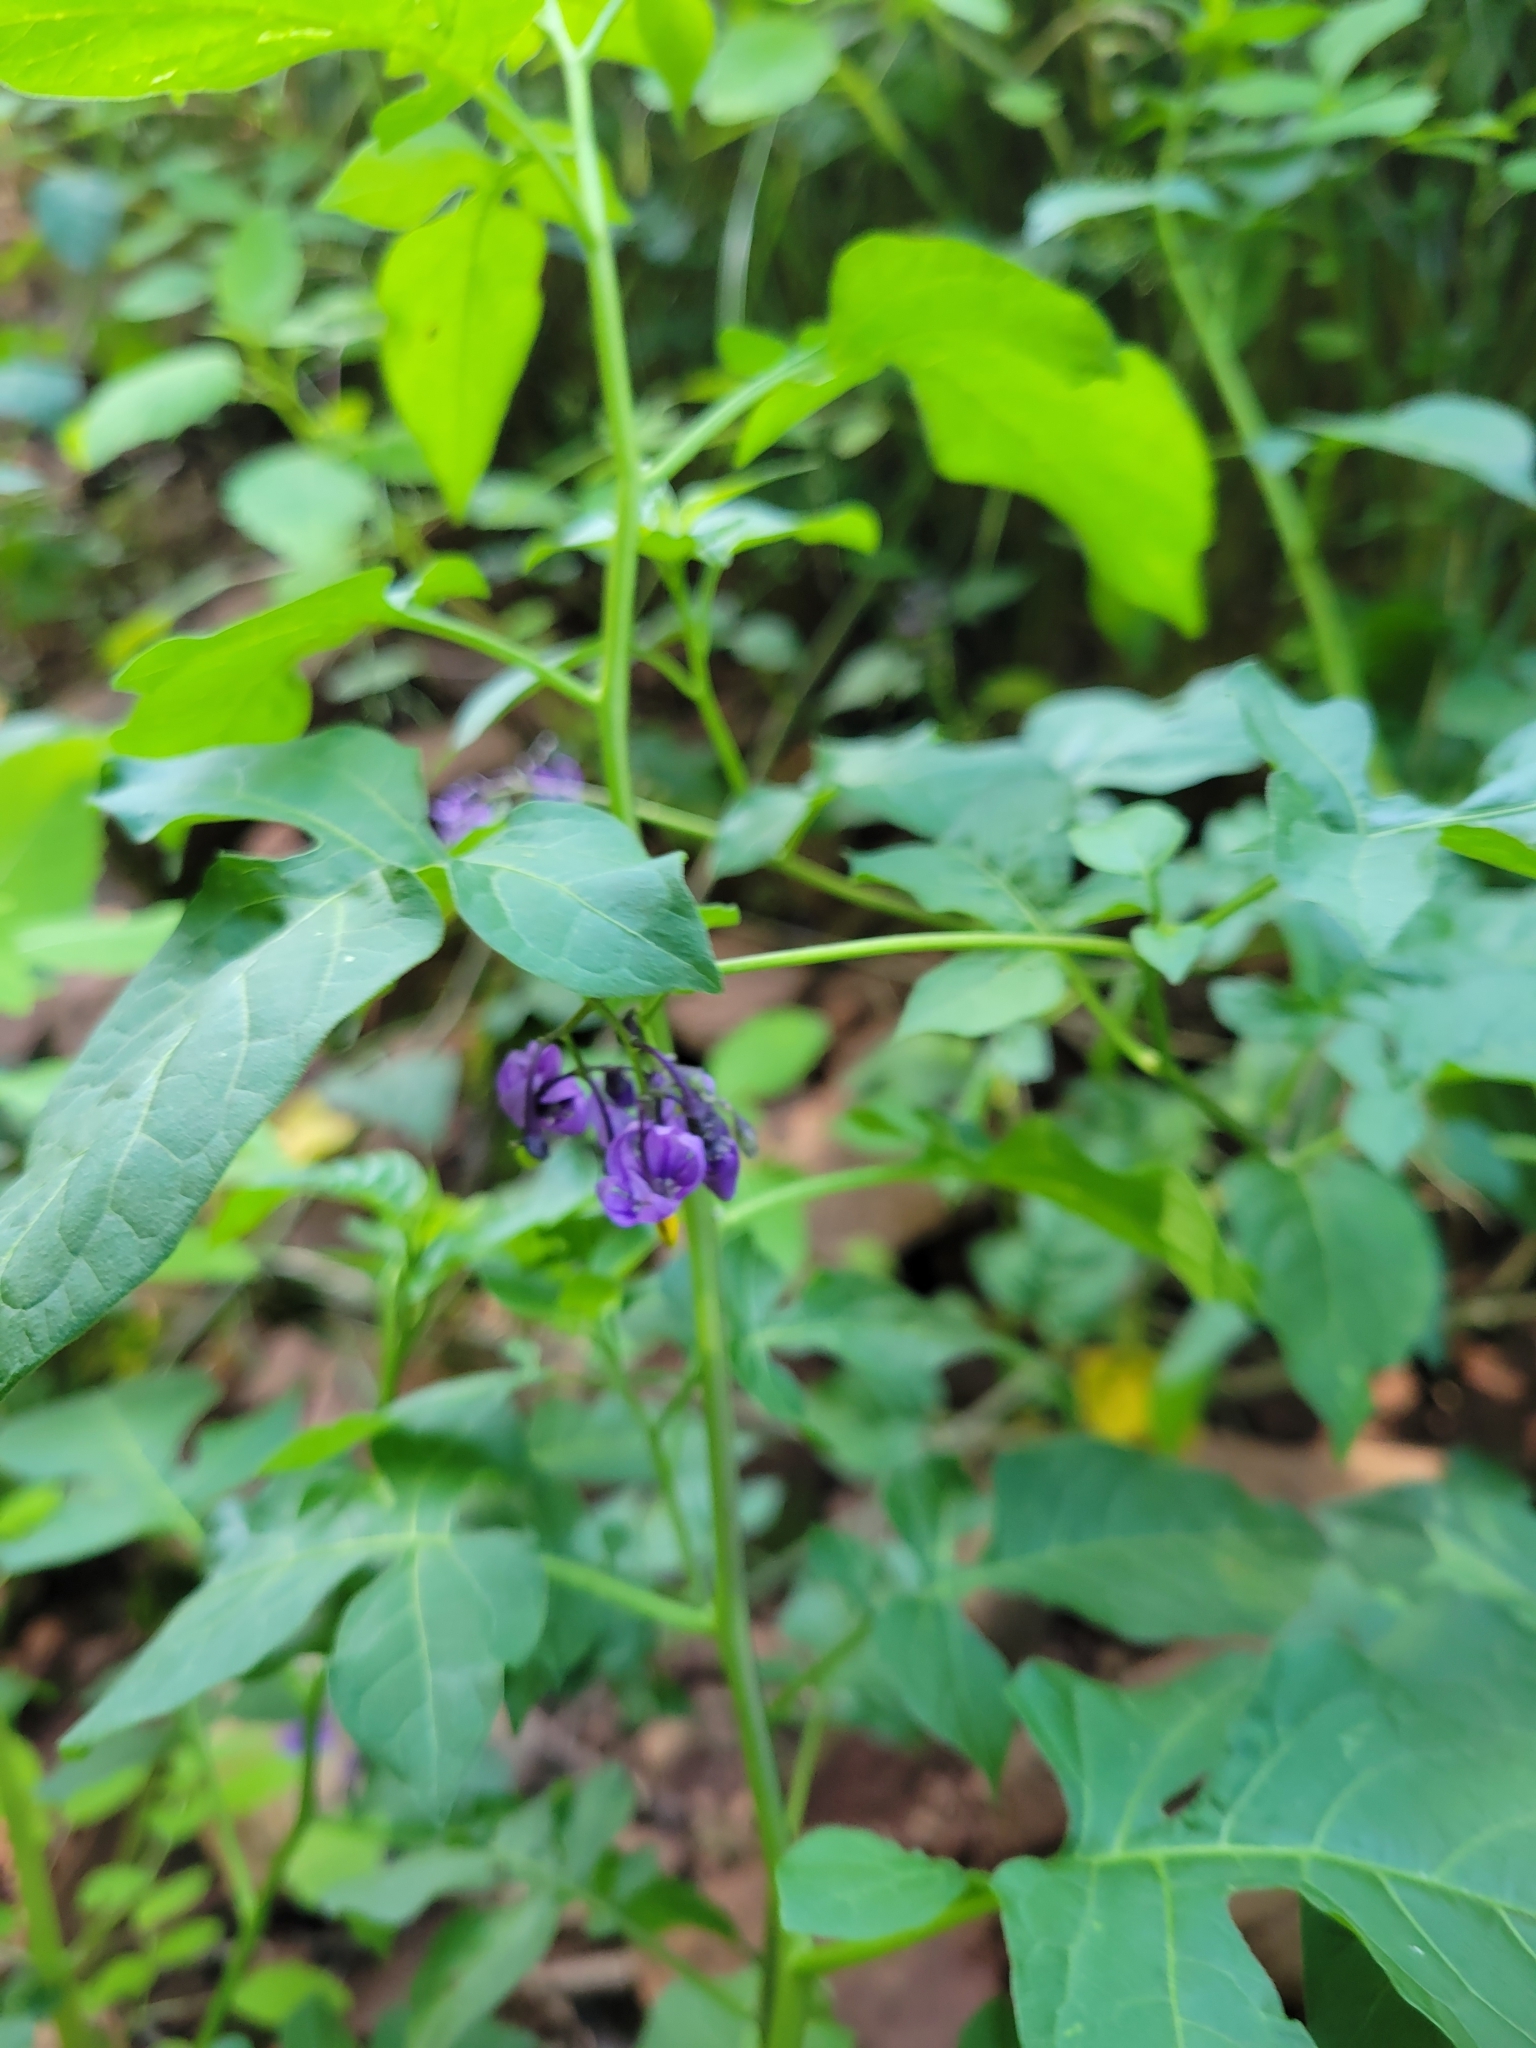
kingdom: Plantae
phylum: Tracheophyta
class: Magnoliopsida
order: Solanales
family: Solanaceae
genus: Solanum
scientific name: Solanum dulcamara
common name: Climbing nightshade
